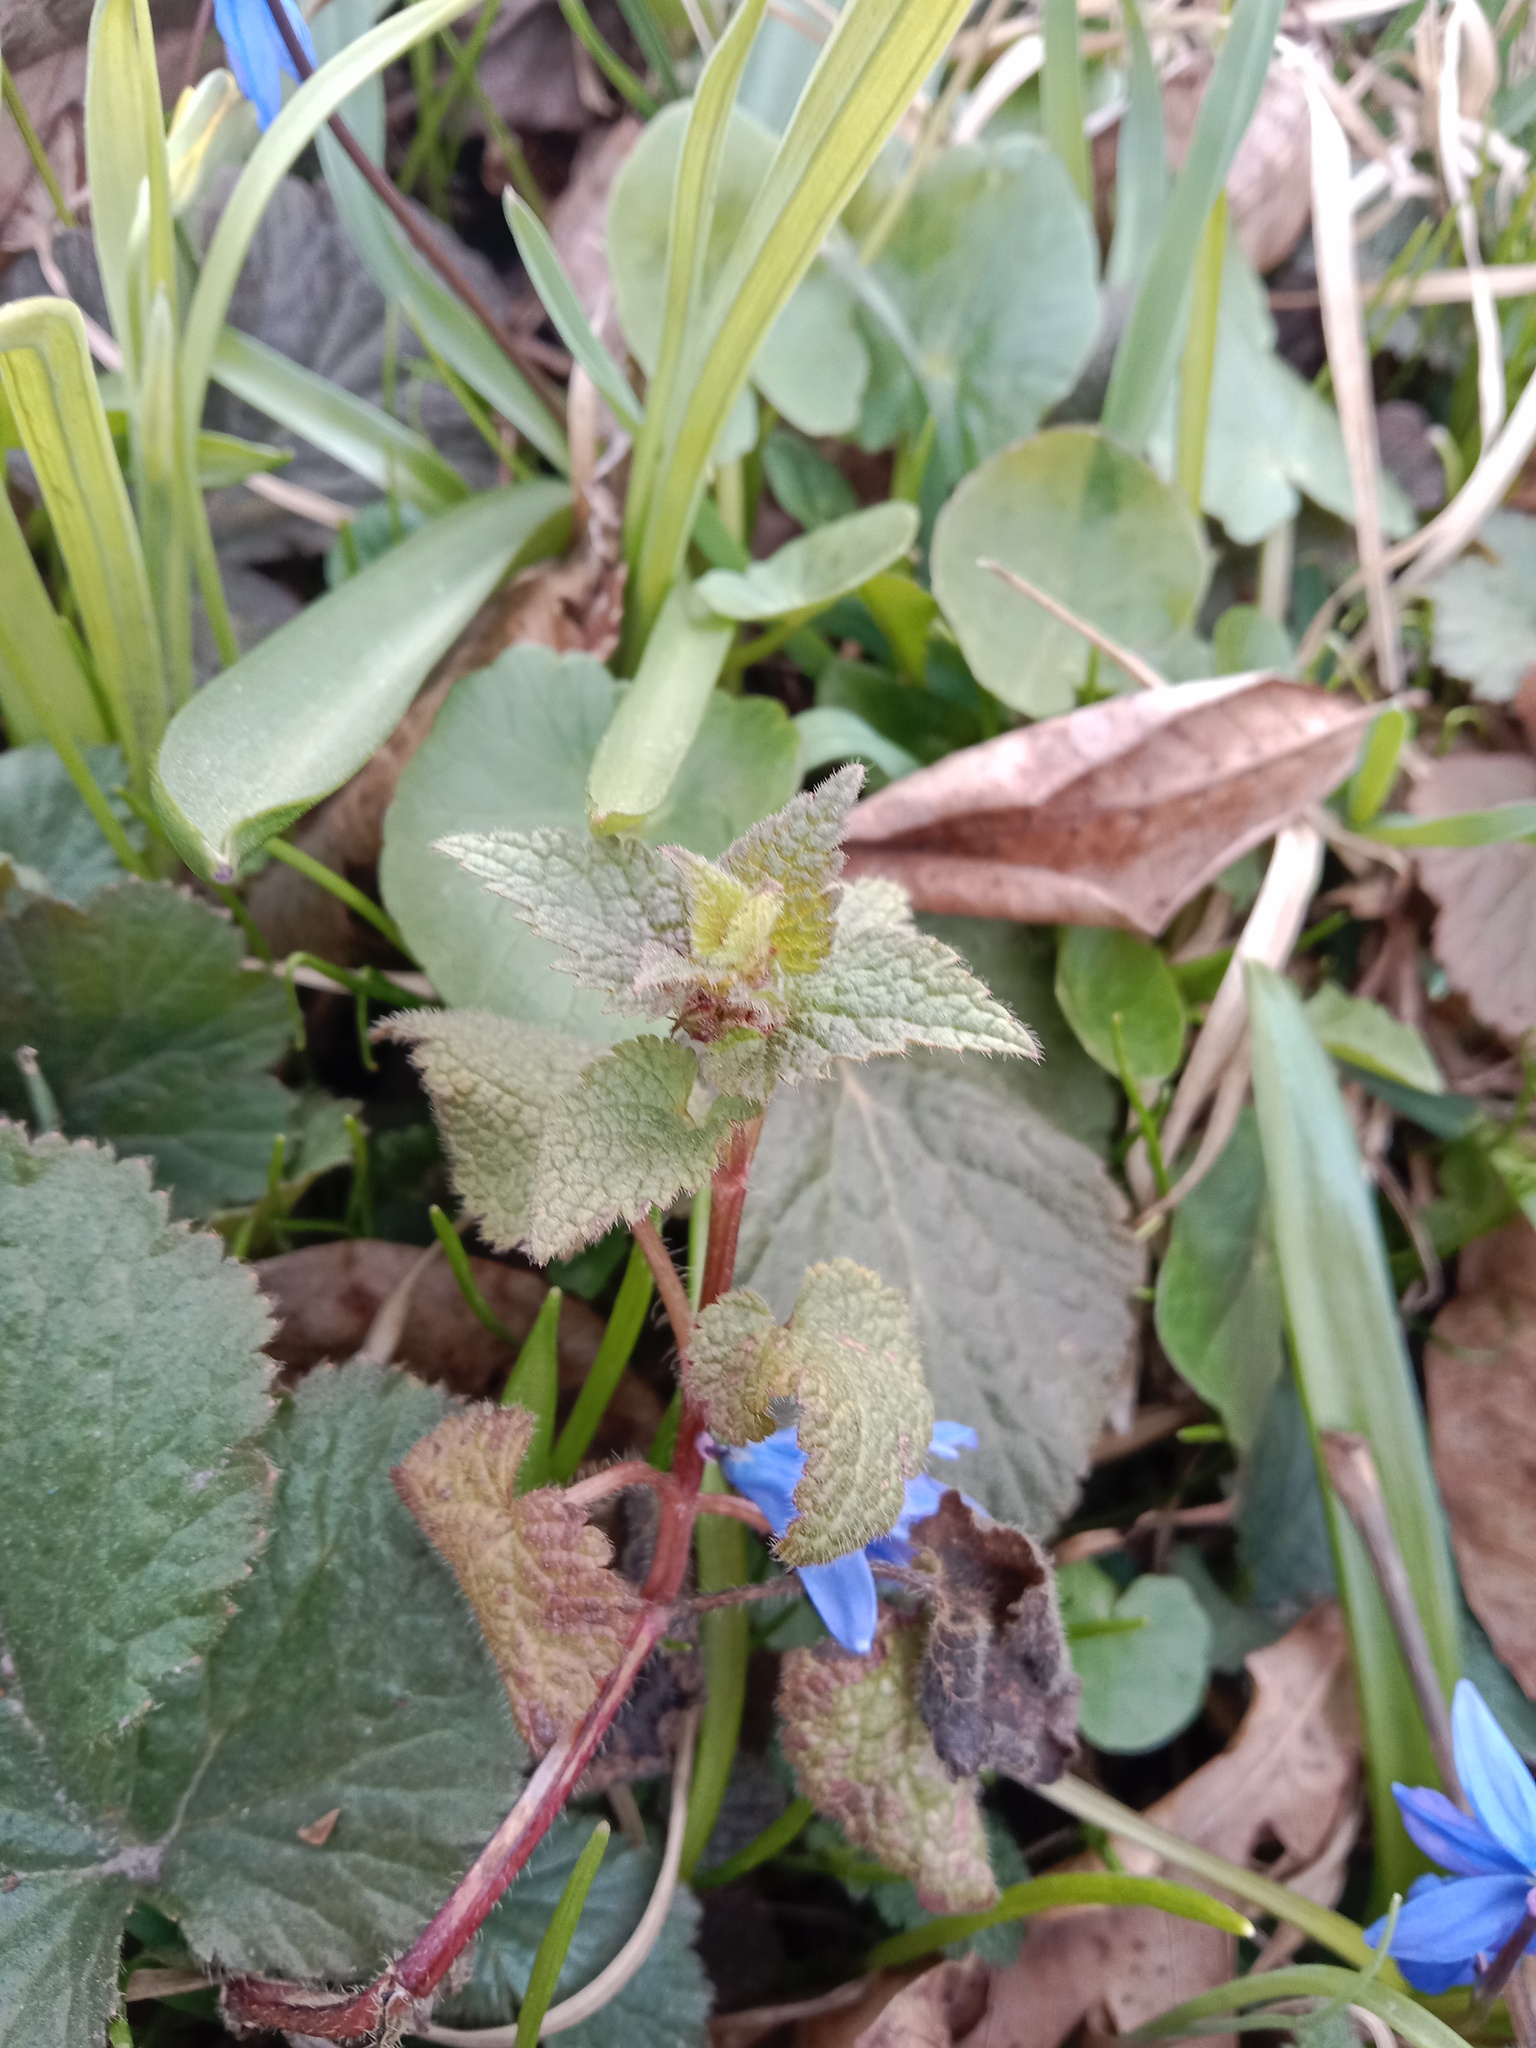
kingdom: Plantae
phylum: Tracheophyta
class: Magnoliopsida
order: Lamiales
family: Lamiaceae
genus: Lamium
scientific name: Lamium maculatum
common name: Spotted dead-nettle
